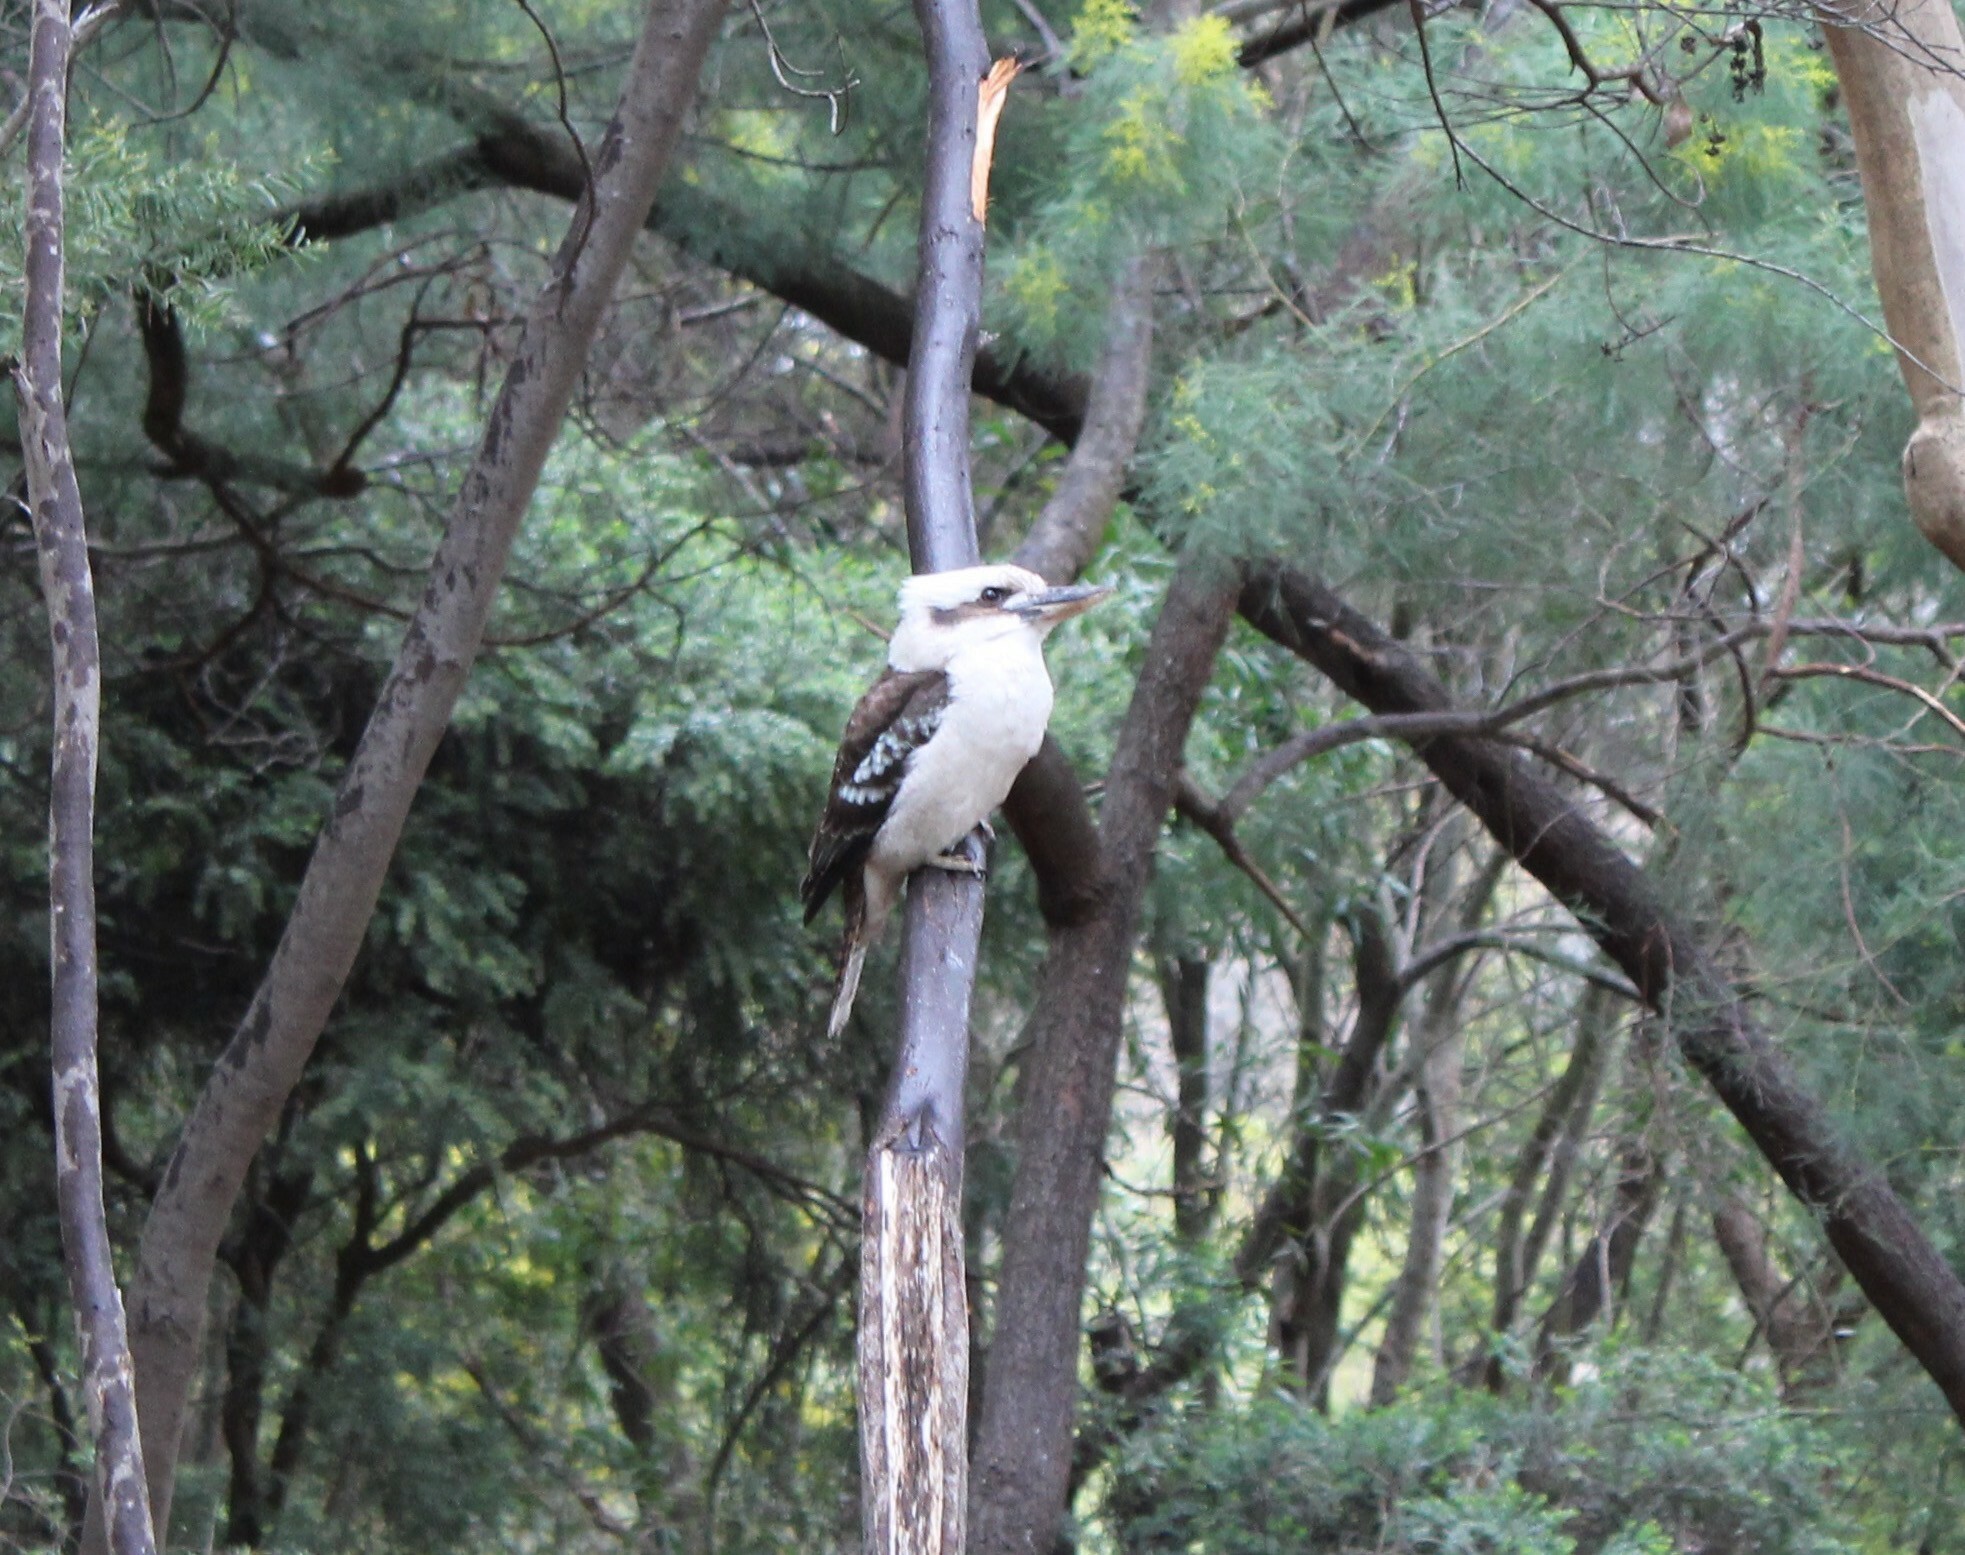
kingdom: Animalia
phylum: Chordata
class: Aves
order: Coraciiformes
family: Alcedinidae
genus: Dacelo
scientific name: Dacelo novaeguineae
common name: Laughing kookaburra
